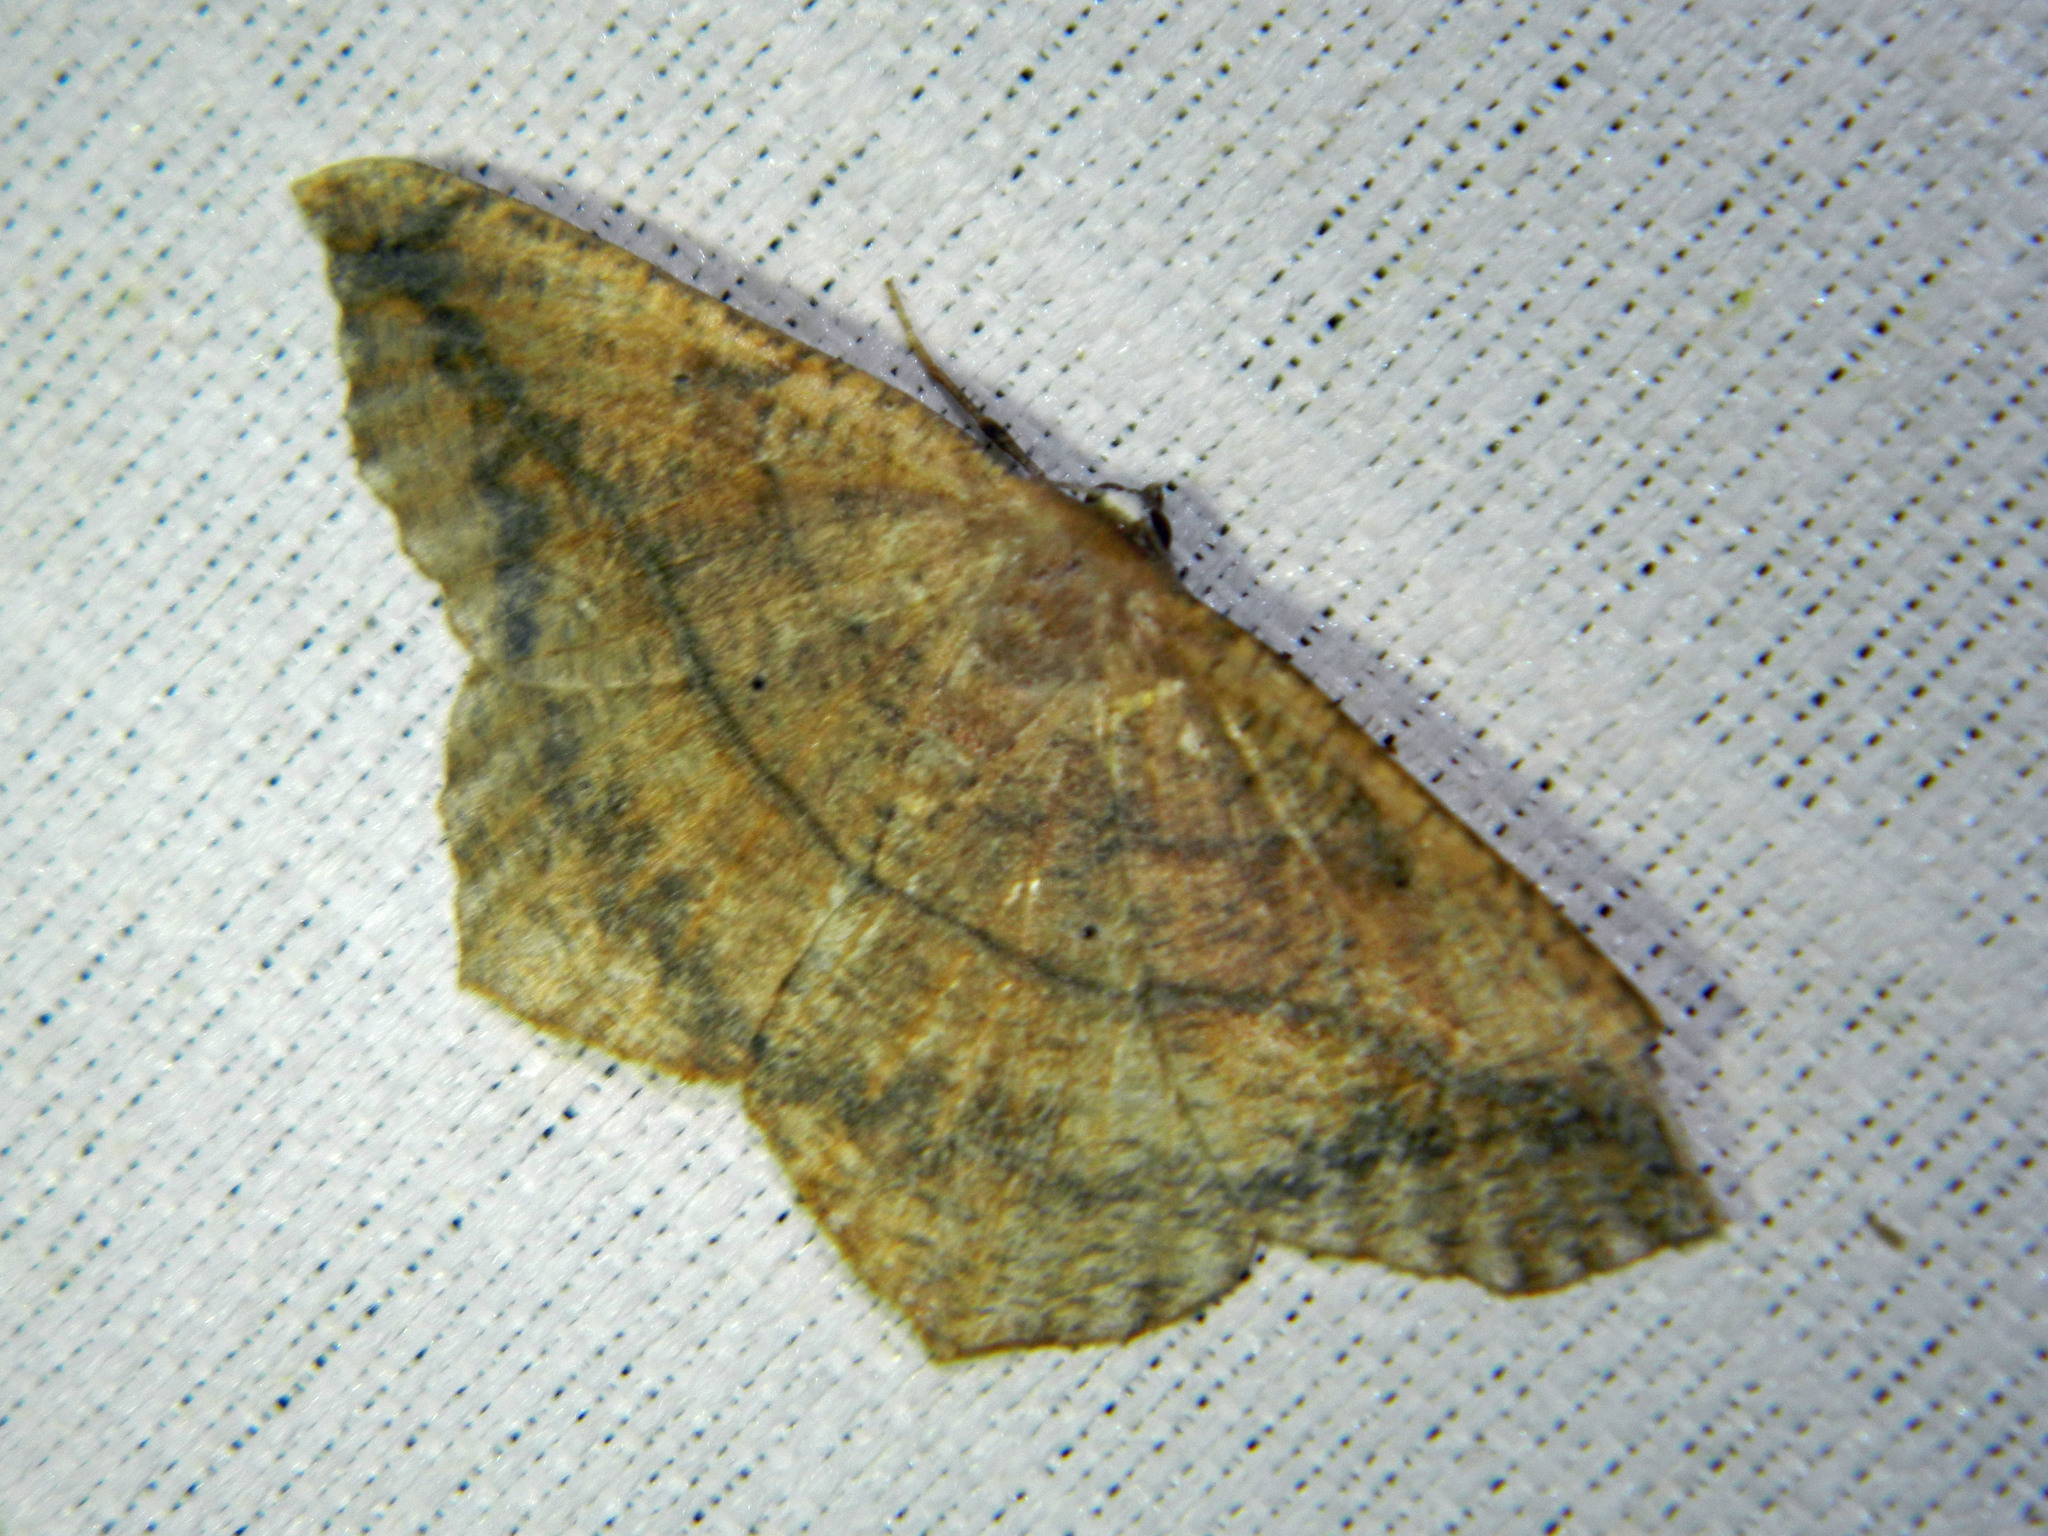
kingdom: Animalia
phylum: Arthropoda
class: Insecta
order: Lepidoptera
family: Geometridae
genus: Prochoerodes
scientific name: Prochoerodes lineola
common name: Large maple spanworm
